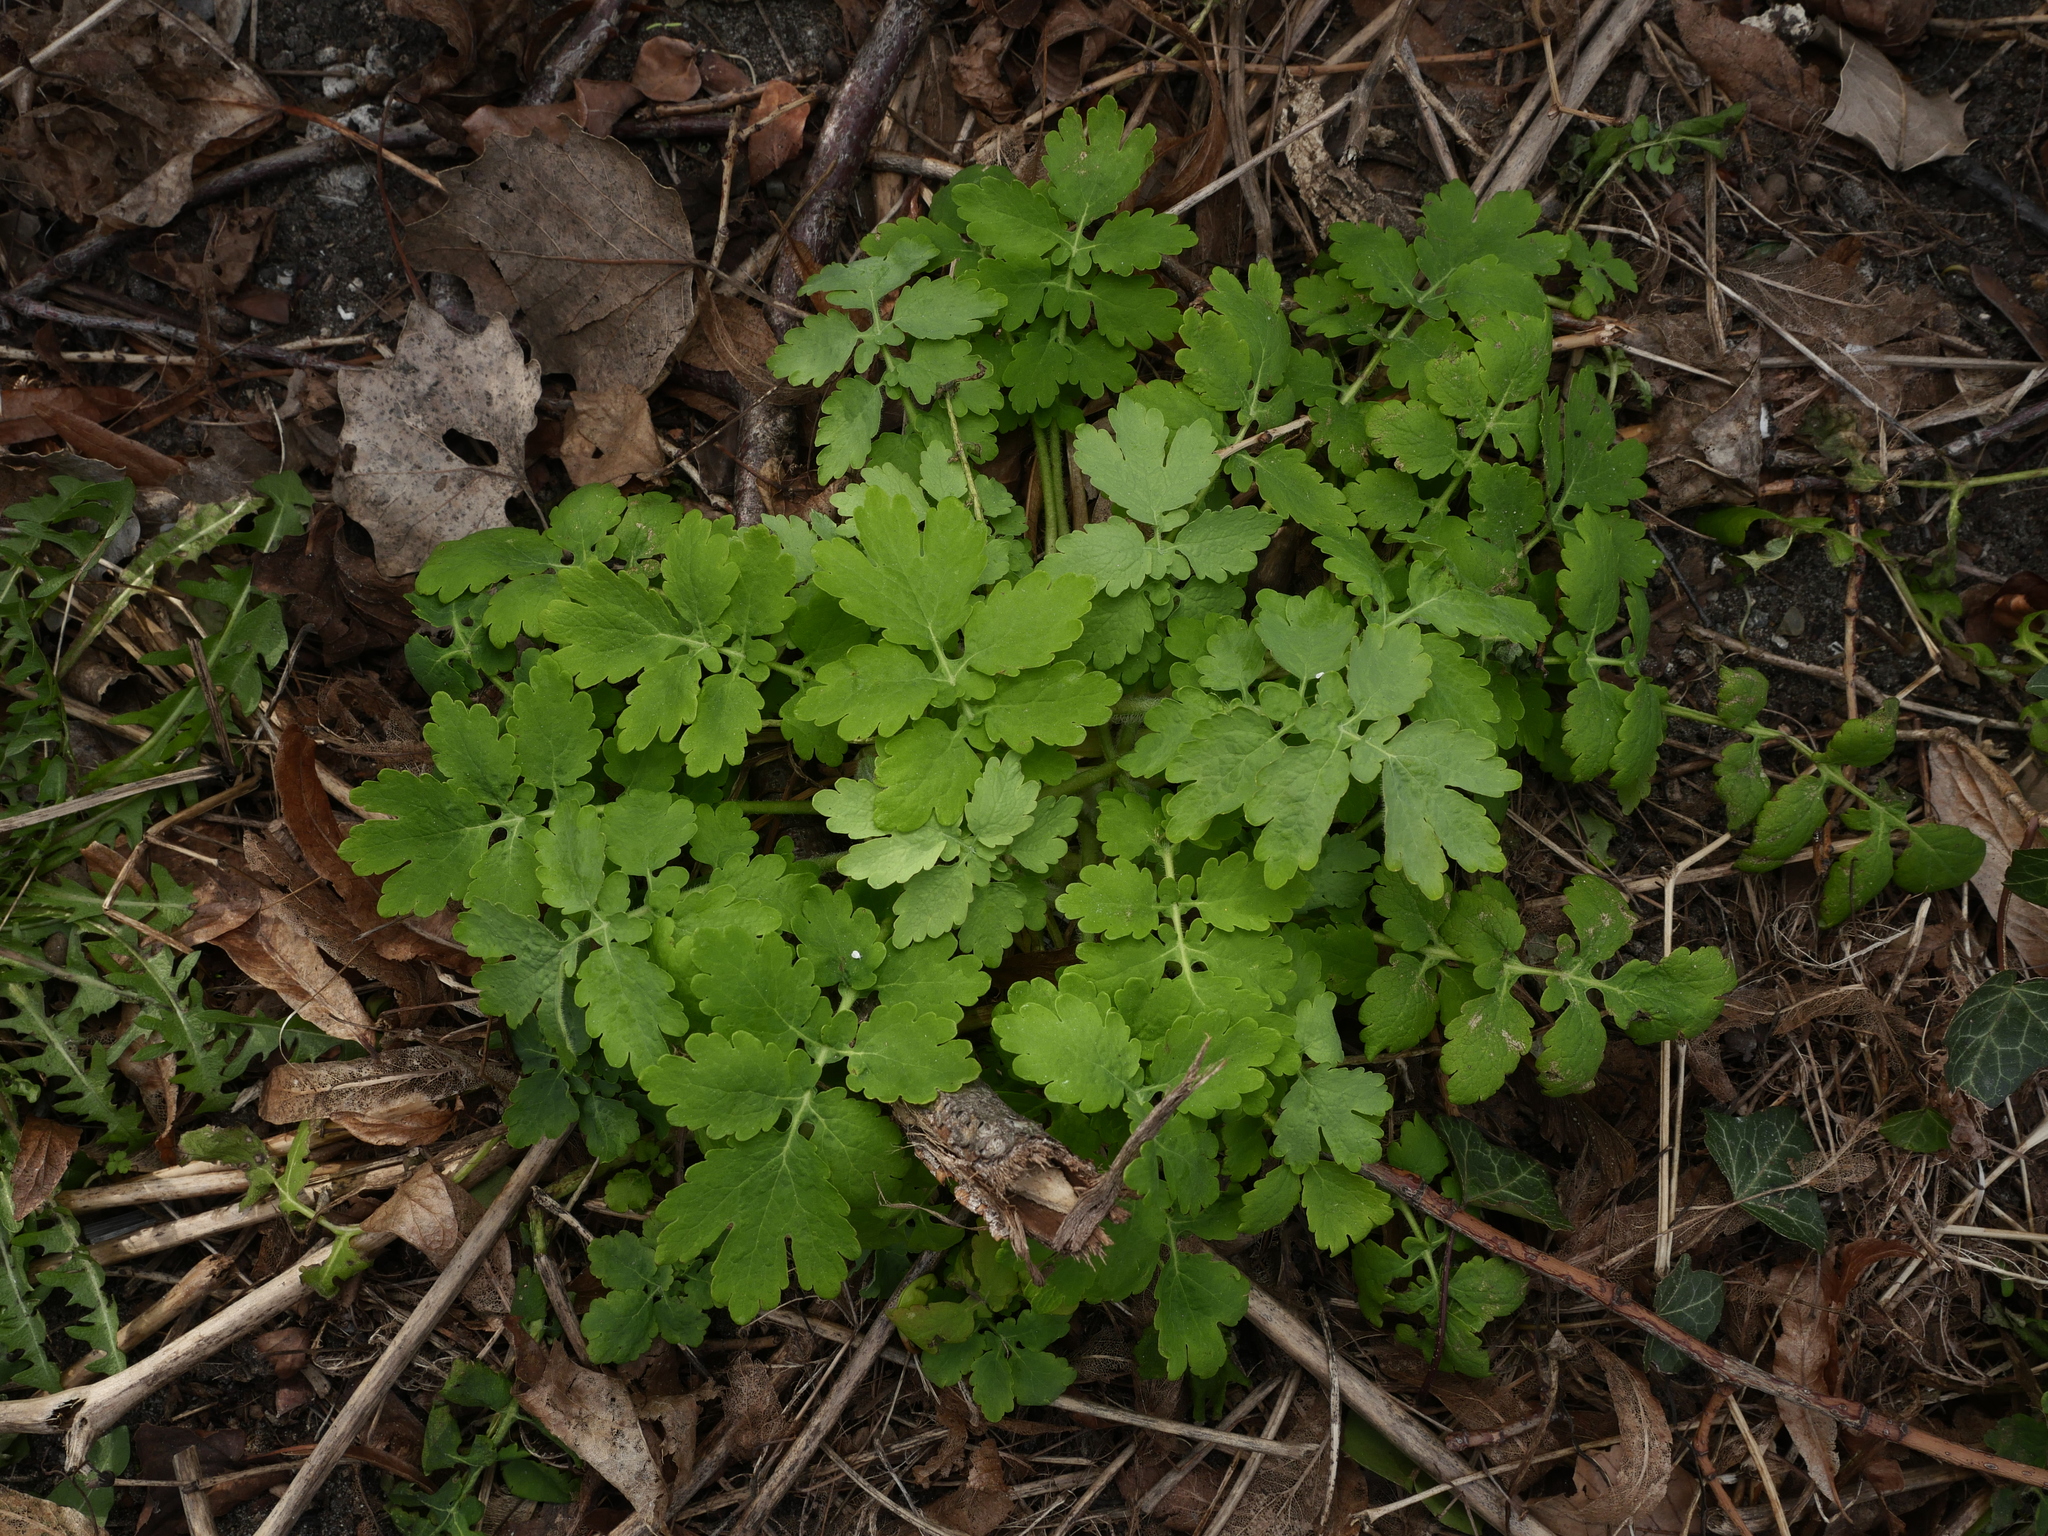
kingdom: Plantae
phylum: Tracheophyta
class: Magnoliopsida
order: Ranunculales
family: Papaveraceae
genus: Chelidonium
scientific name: Chelidonium majus
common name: Greater celandine
